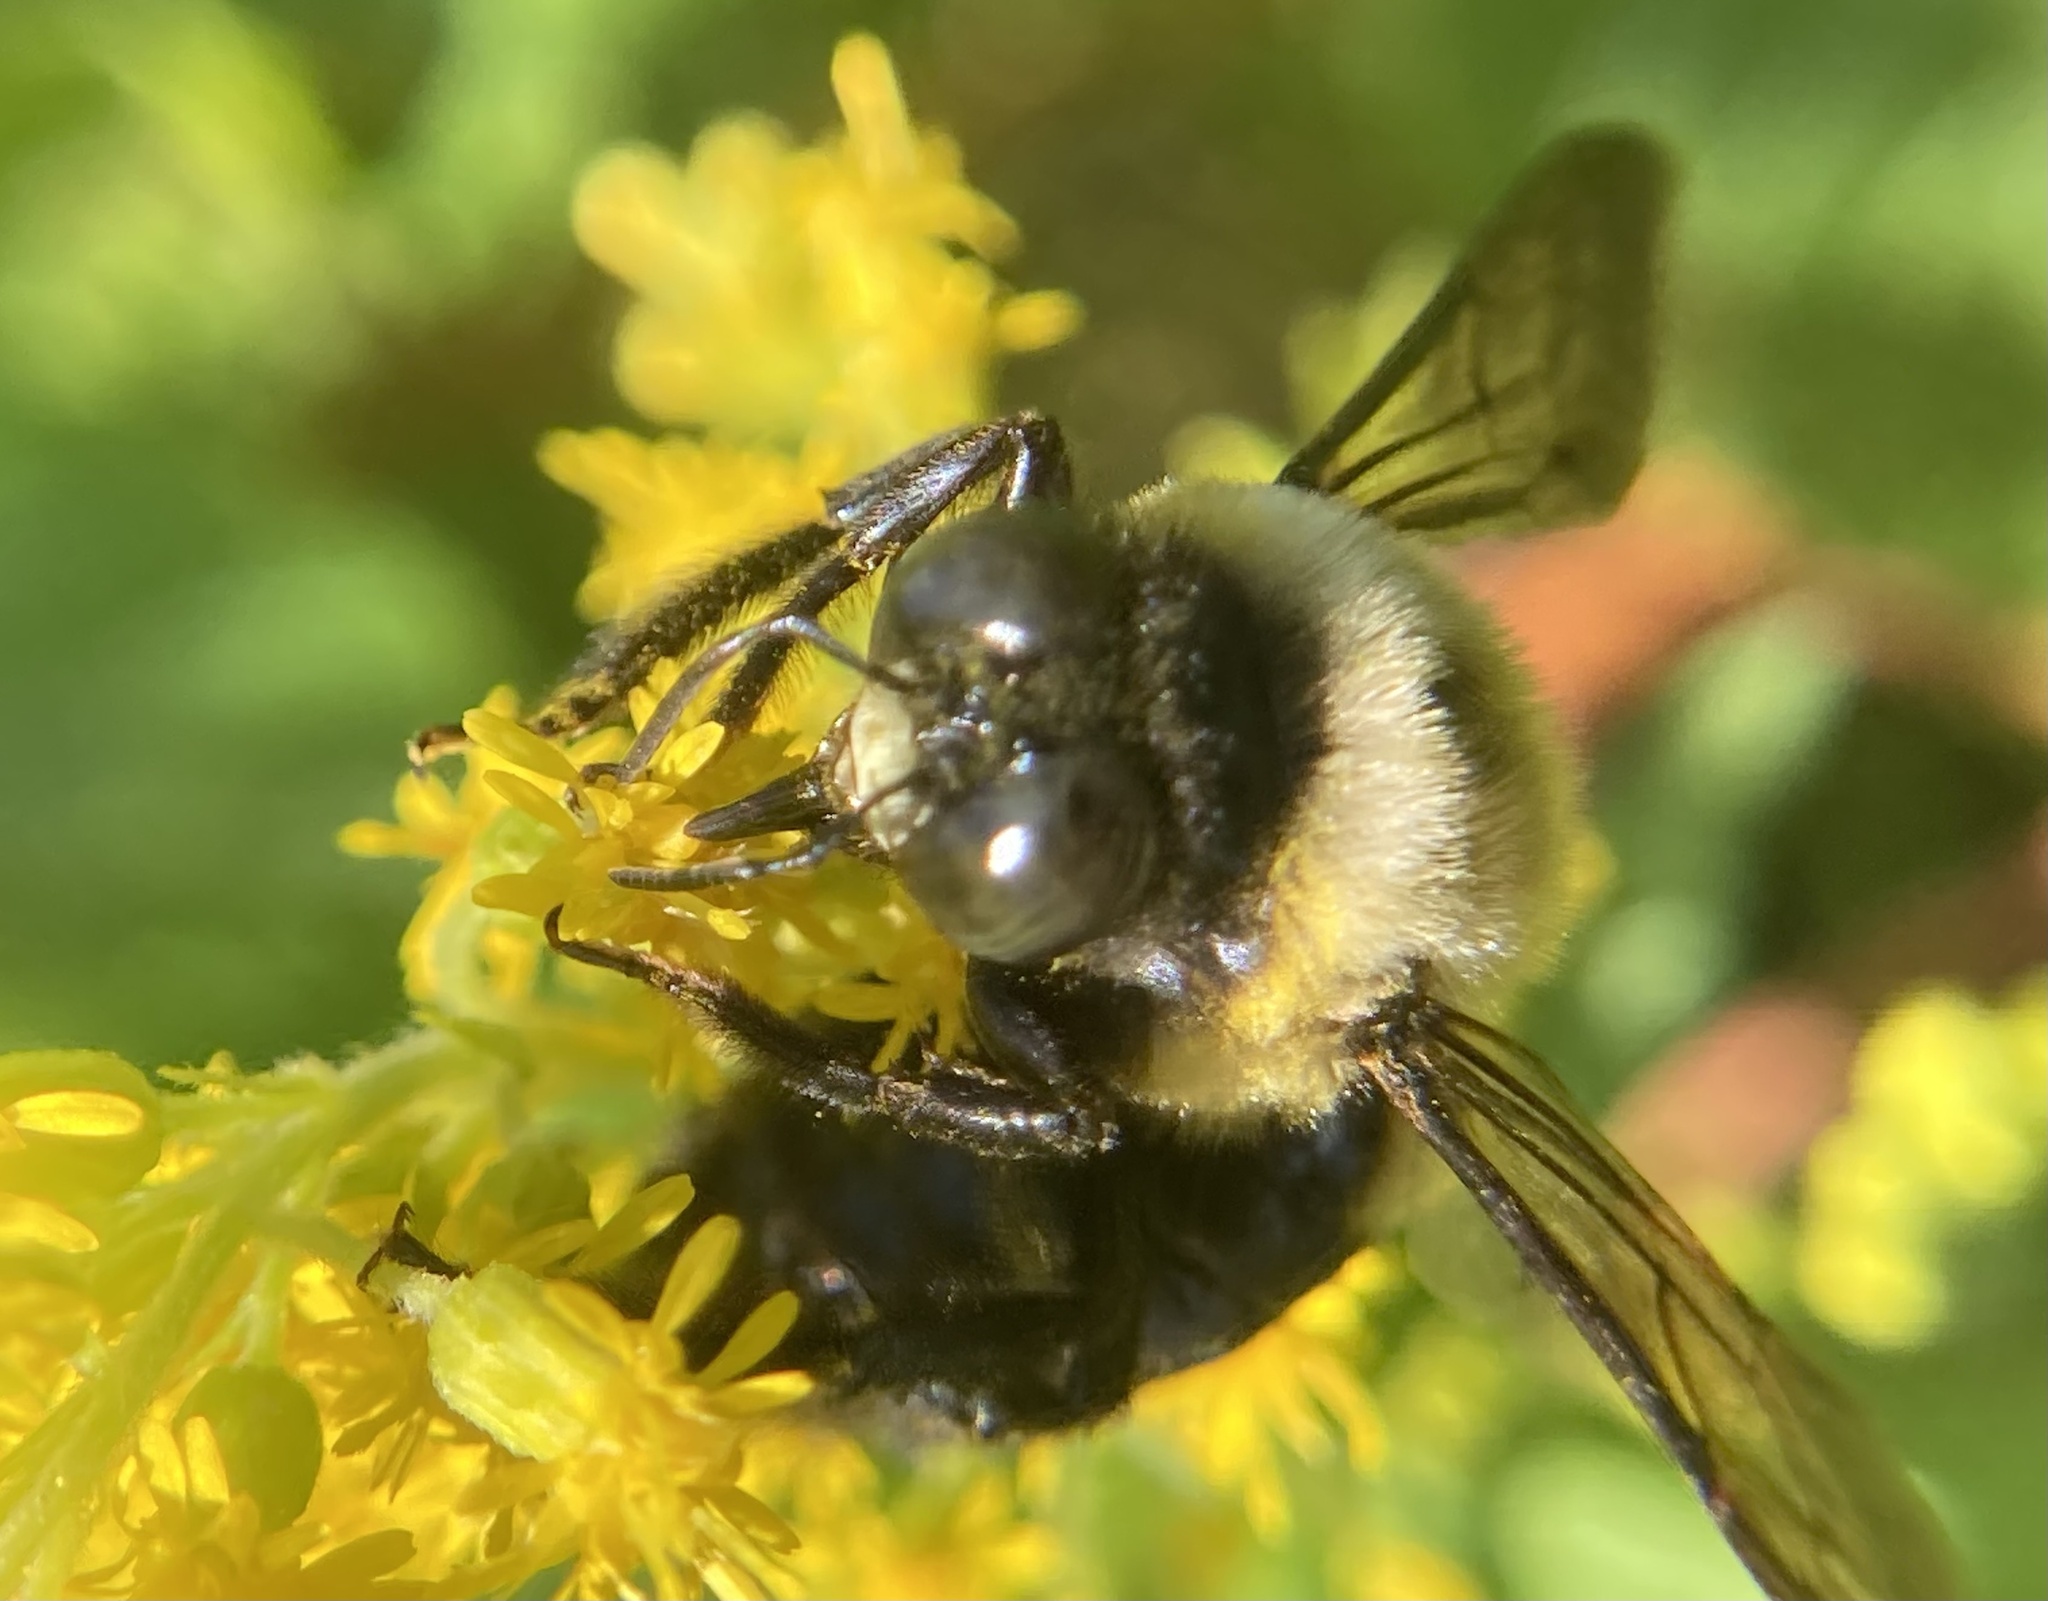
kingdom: Animalia
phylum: Arthropoda
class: Insecta
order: Hymenoptera
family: Apidae
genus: Xylocopa
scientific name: Xylocopa virginica
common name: Carpenter bee
